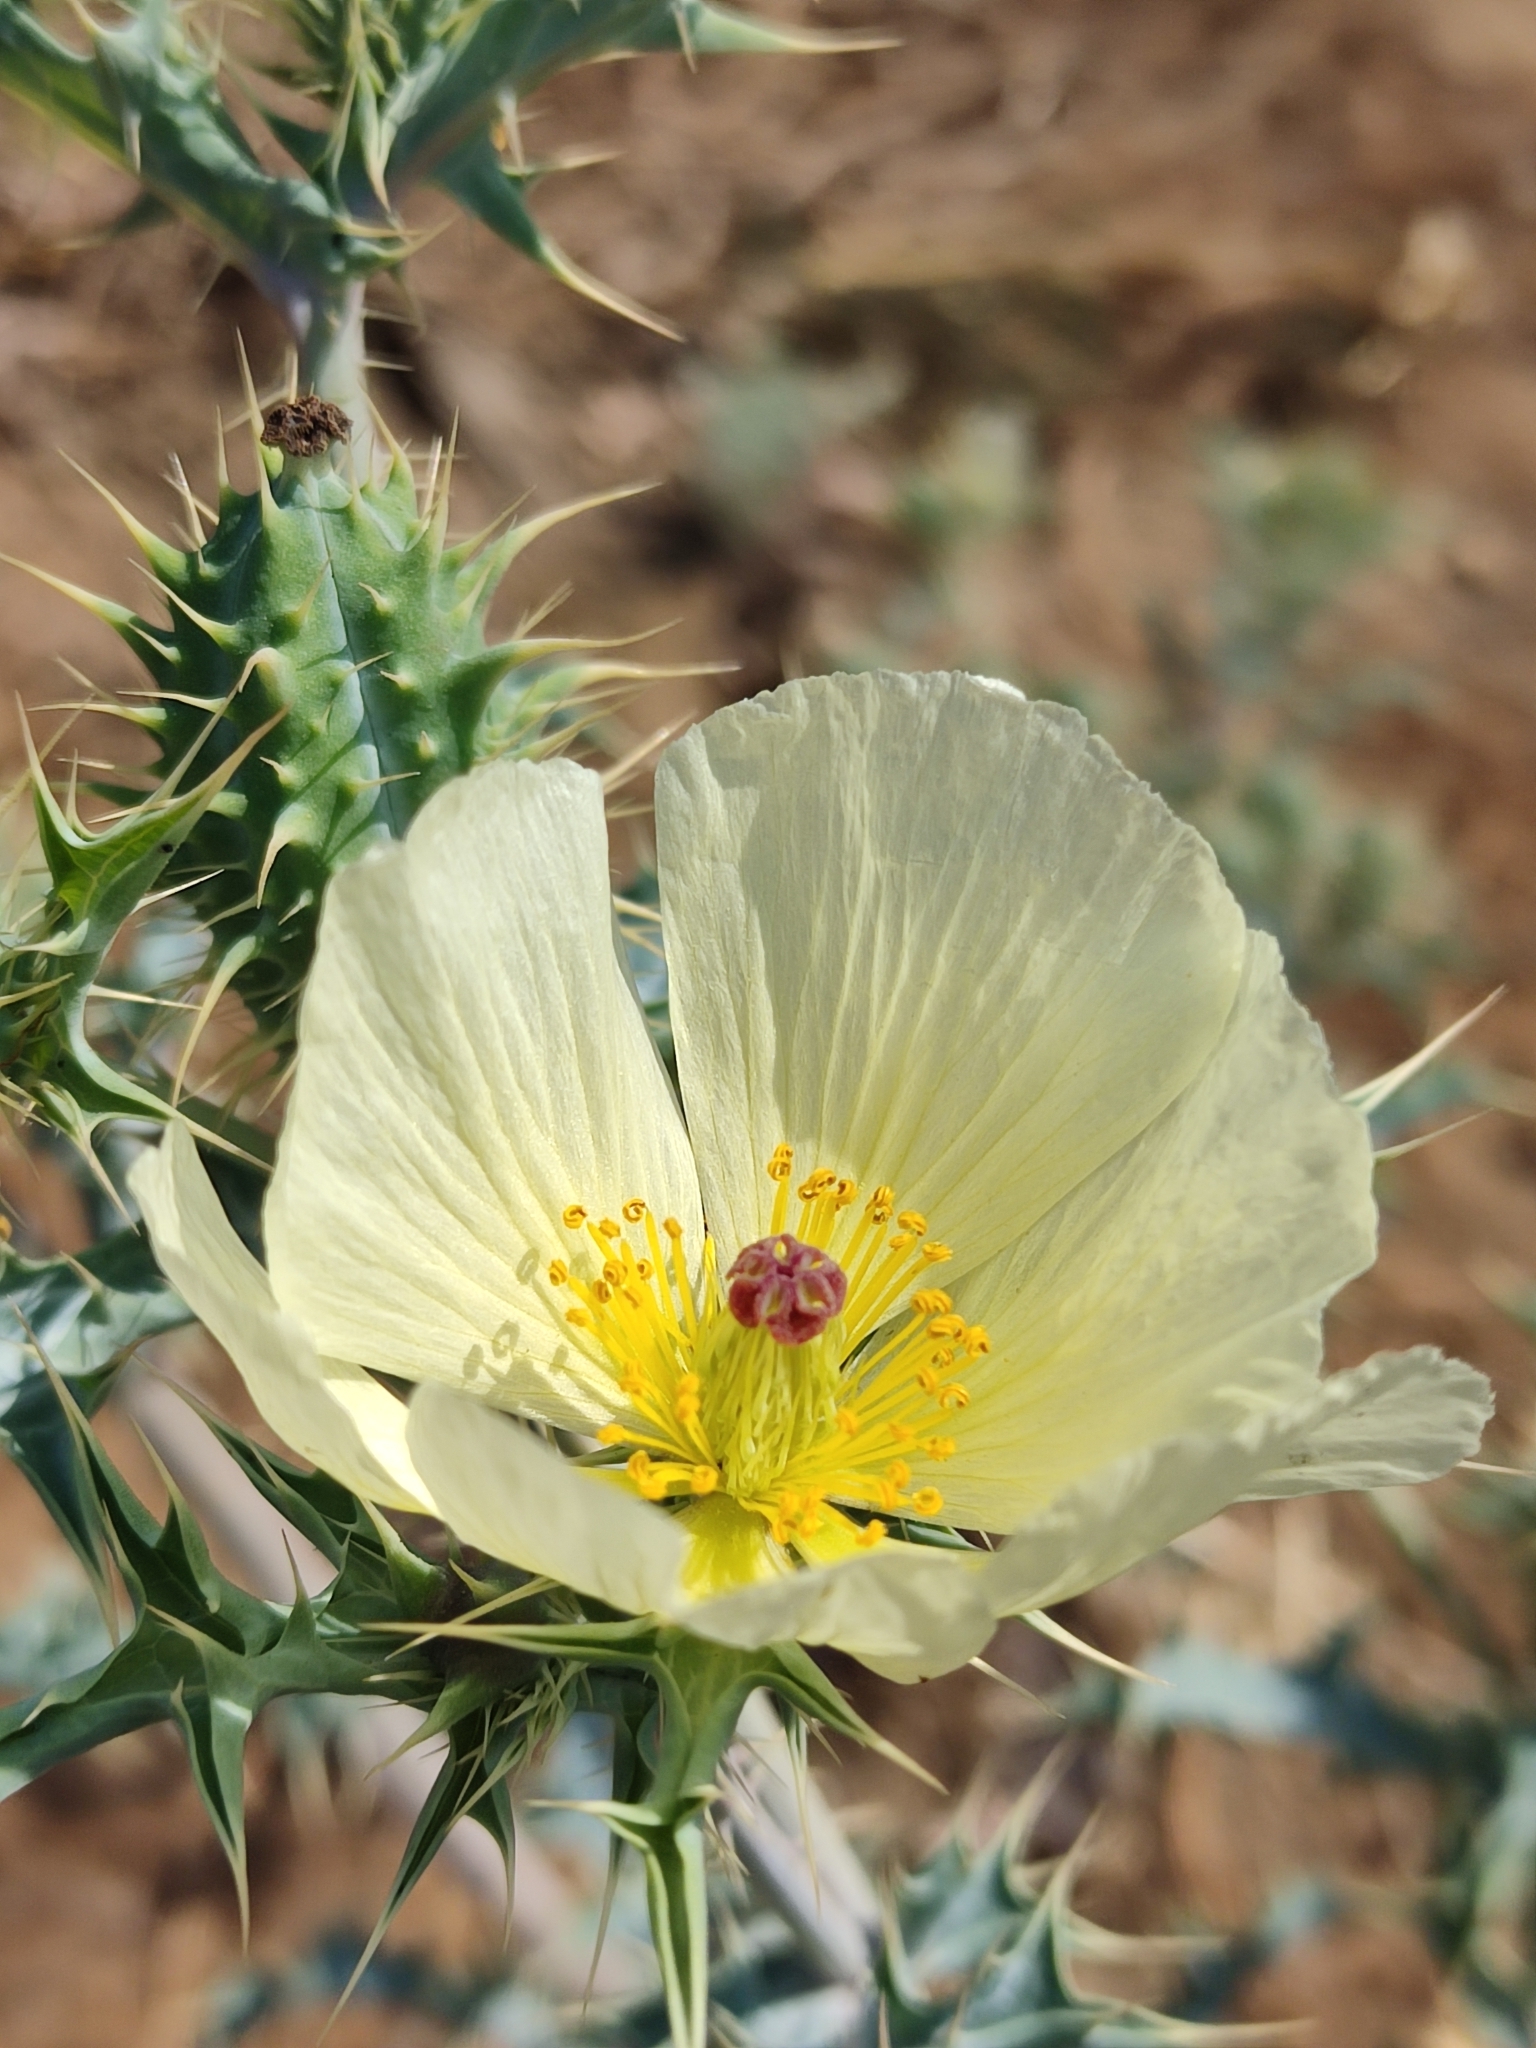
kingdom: Plantae
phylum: Tracheophyta
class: Magnoliopsida
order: Ranunculales
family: Papaveraceae
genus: Argemone
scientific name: Argemone ochroleuca
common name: White-flower mexican-poppy
